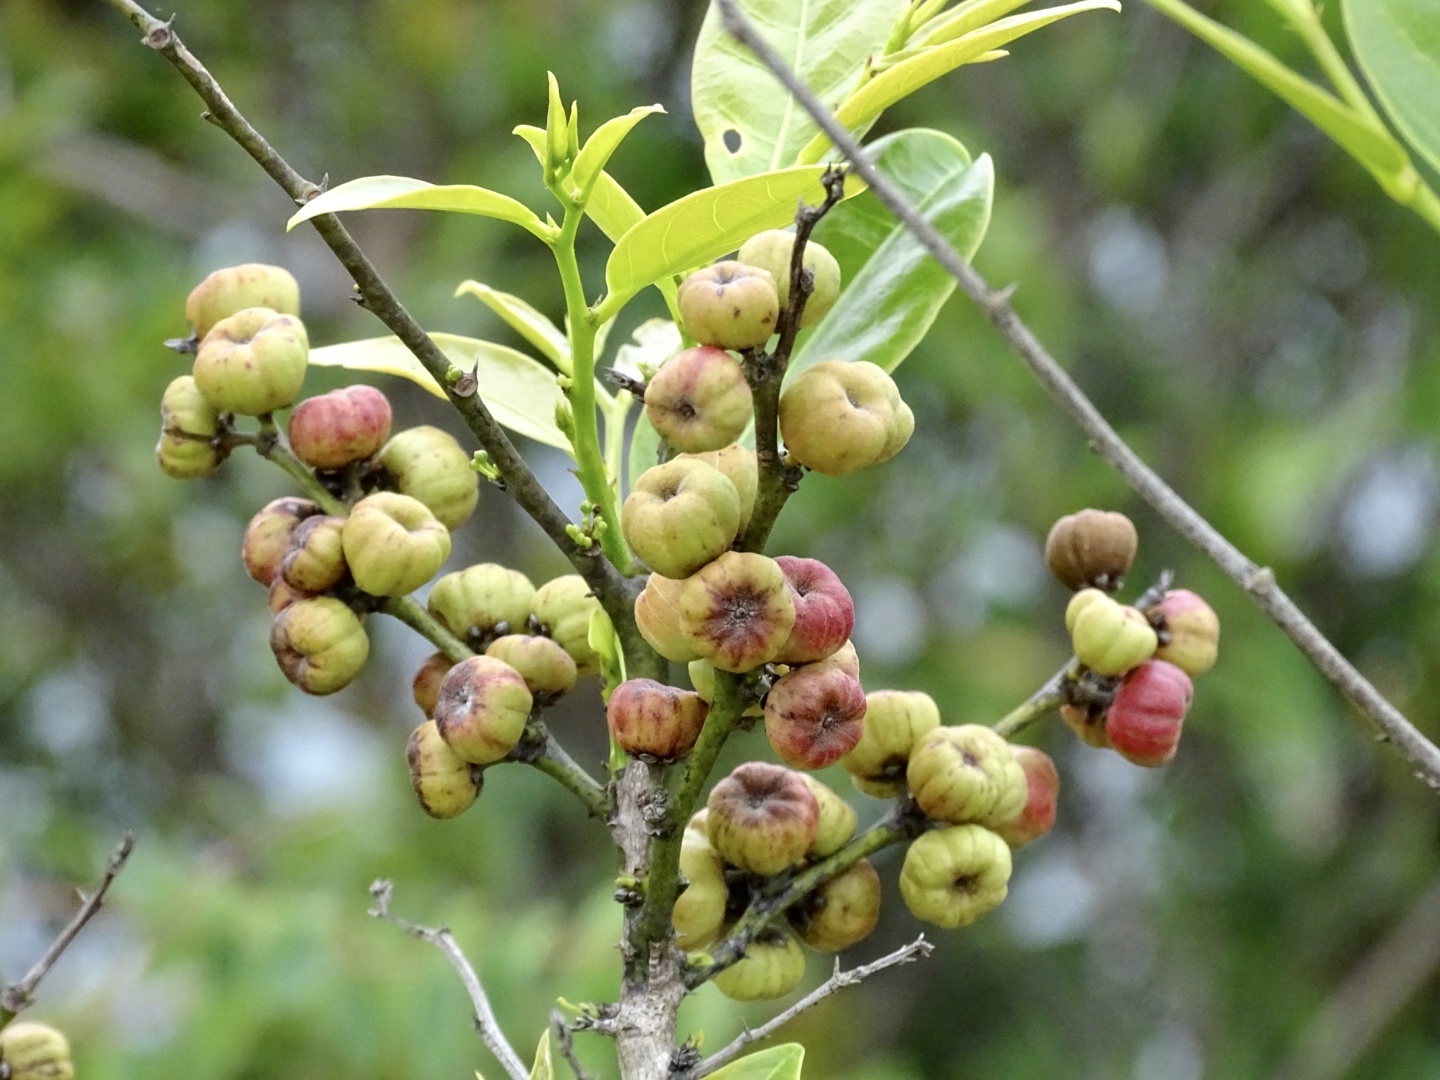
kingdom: Plantae
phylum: Tracheophyta
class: Magnoliopsida
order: Malpighiales
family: Phyllanthaceae
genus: Glochidion
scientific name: Glochidion lanceolarium
